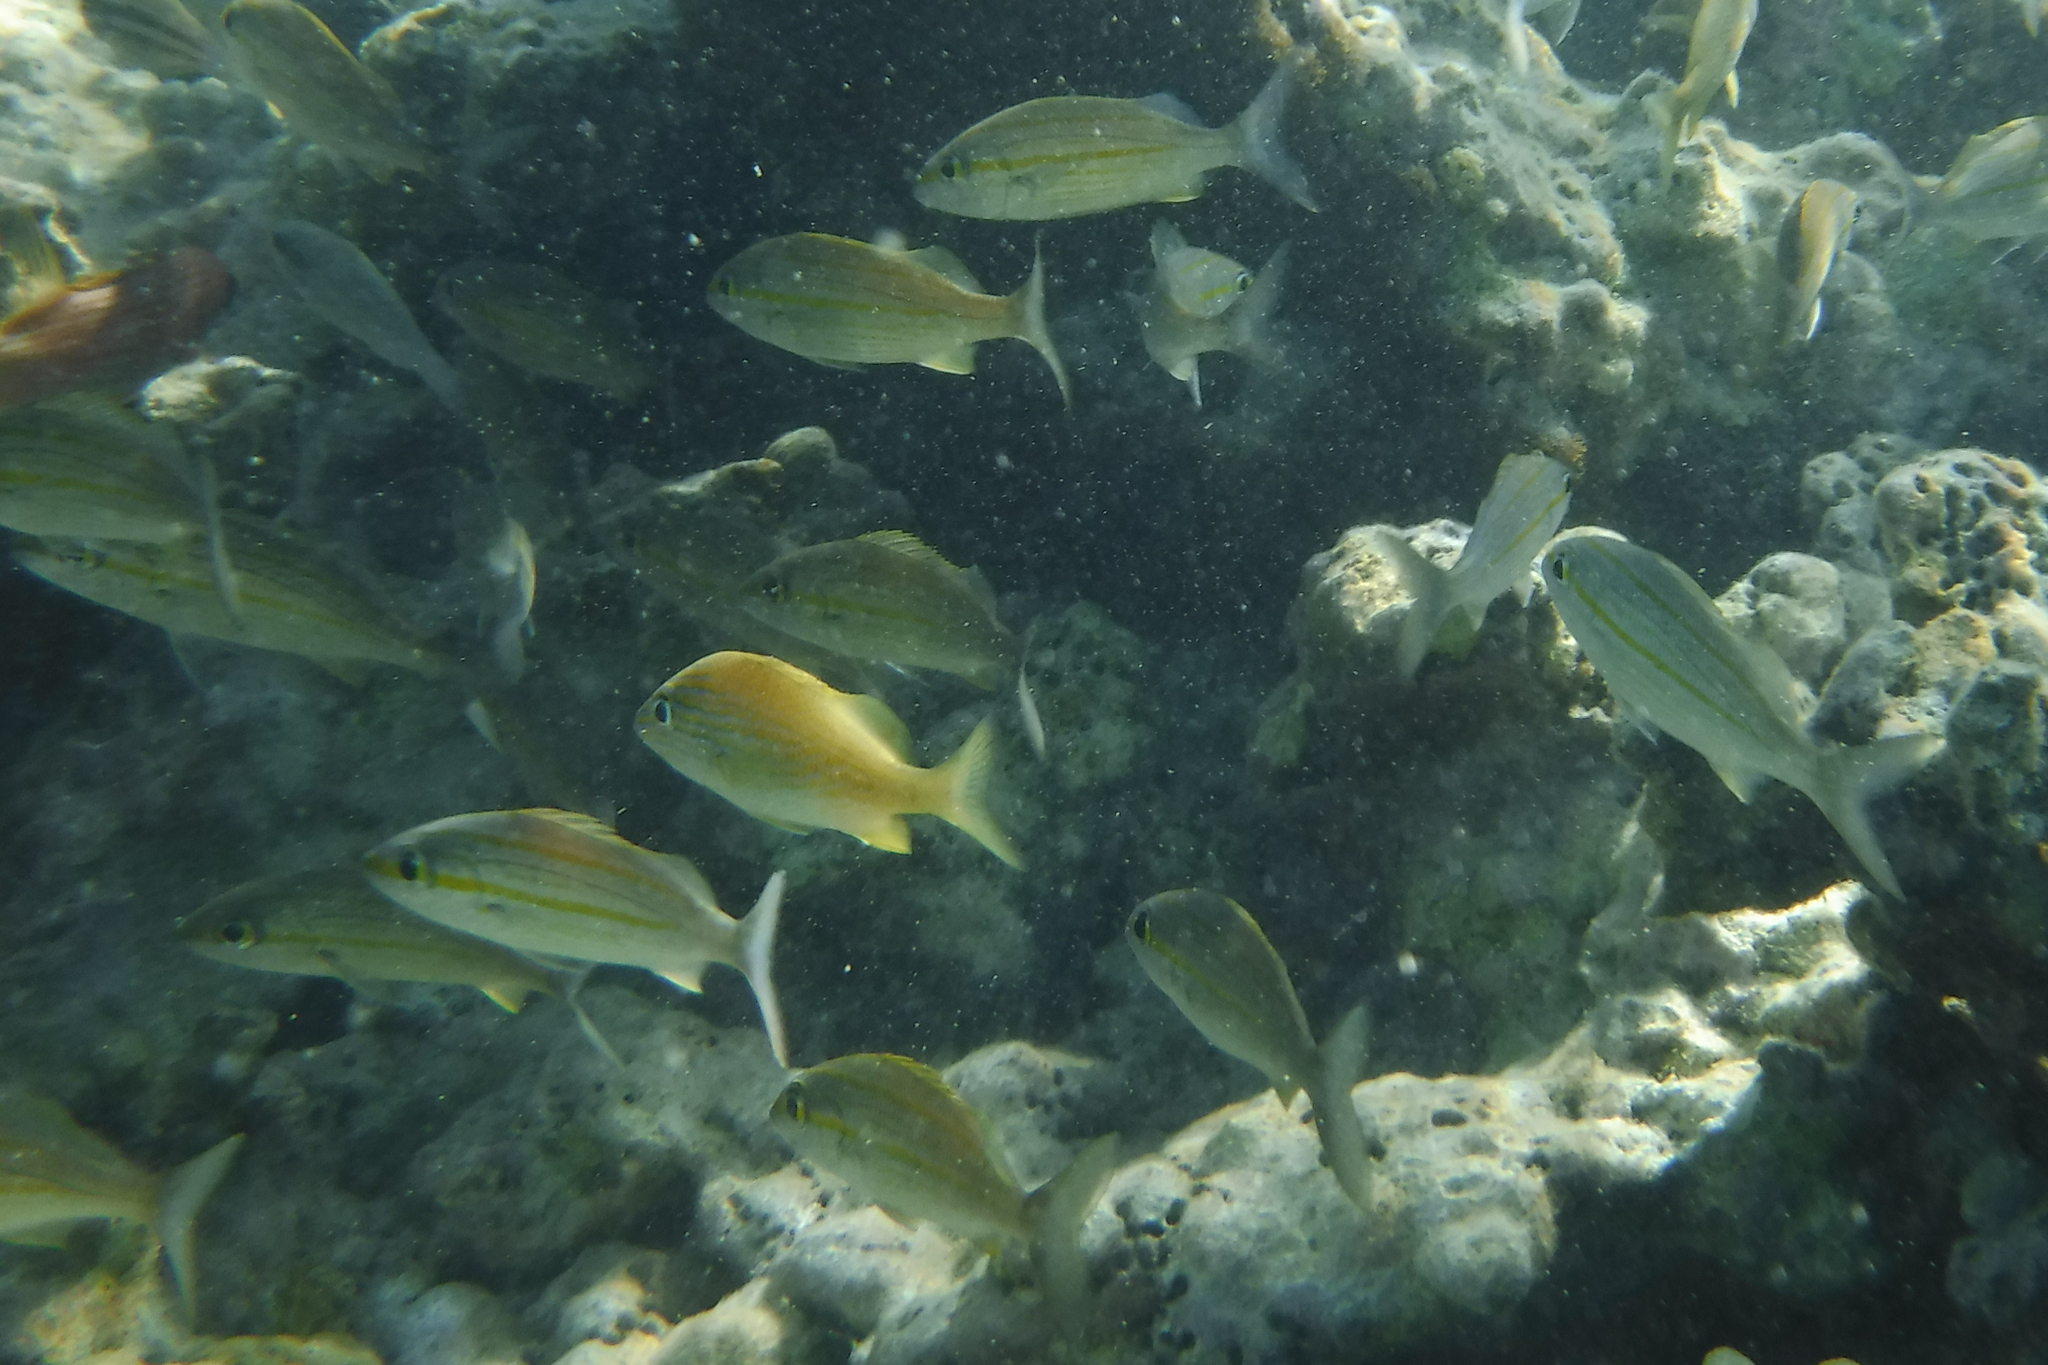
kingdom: Animalia
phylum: Chordata
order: Perciformes
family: Haemulidae
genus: Haemulon
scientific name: Haemulon aurolineatum
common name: Tomtate
